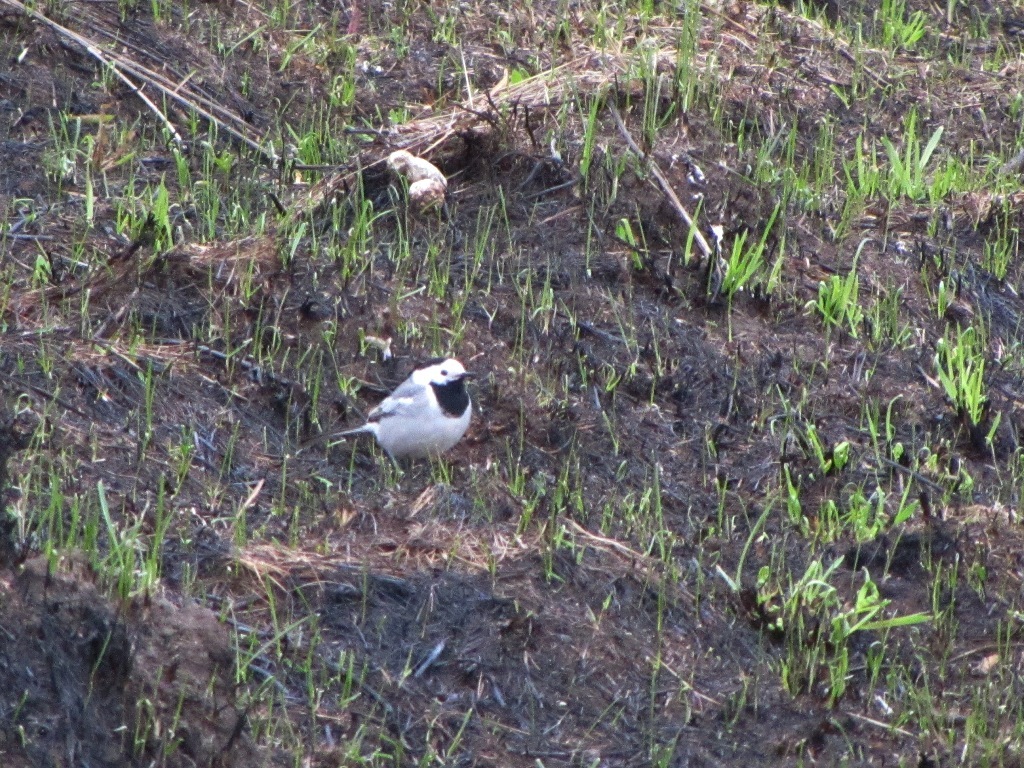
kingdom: Animalia
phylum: Chordata
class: Aves
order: Passeriformes
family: Motacillidae
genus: Motacilla
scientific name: Motacilla alba
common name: White wagtail
